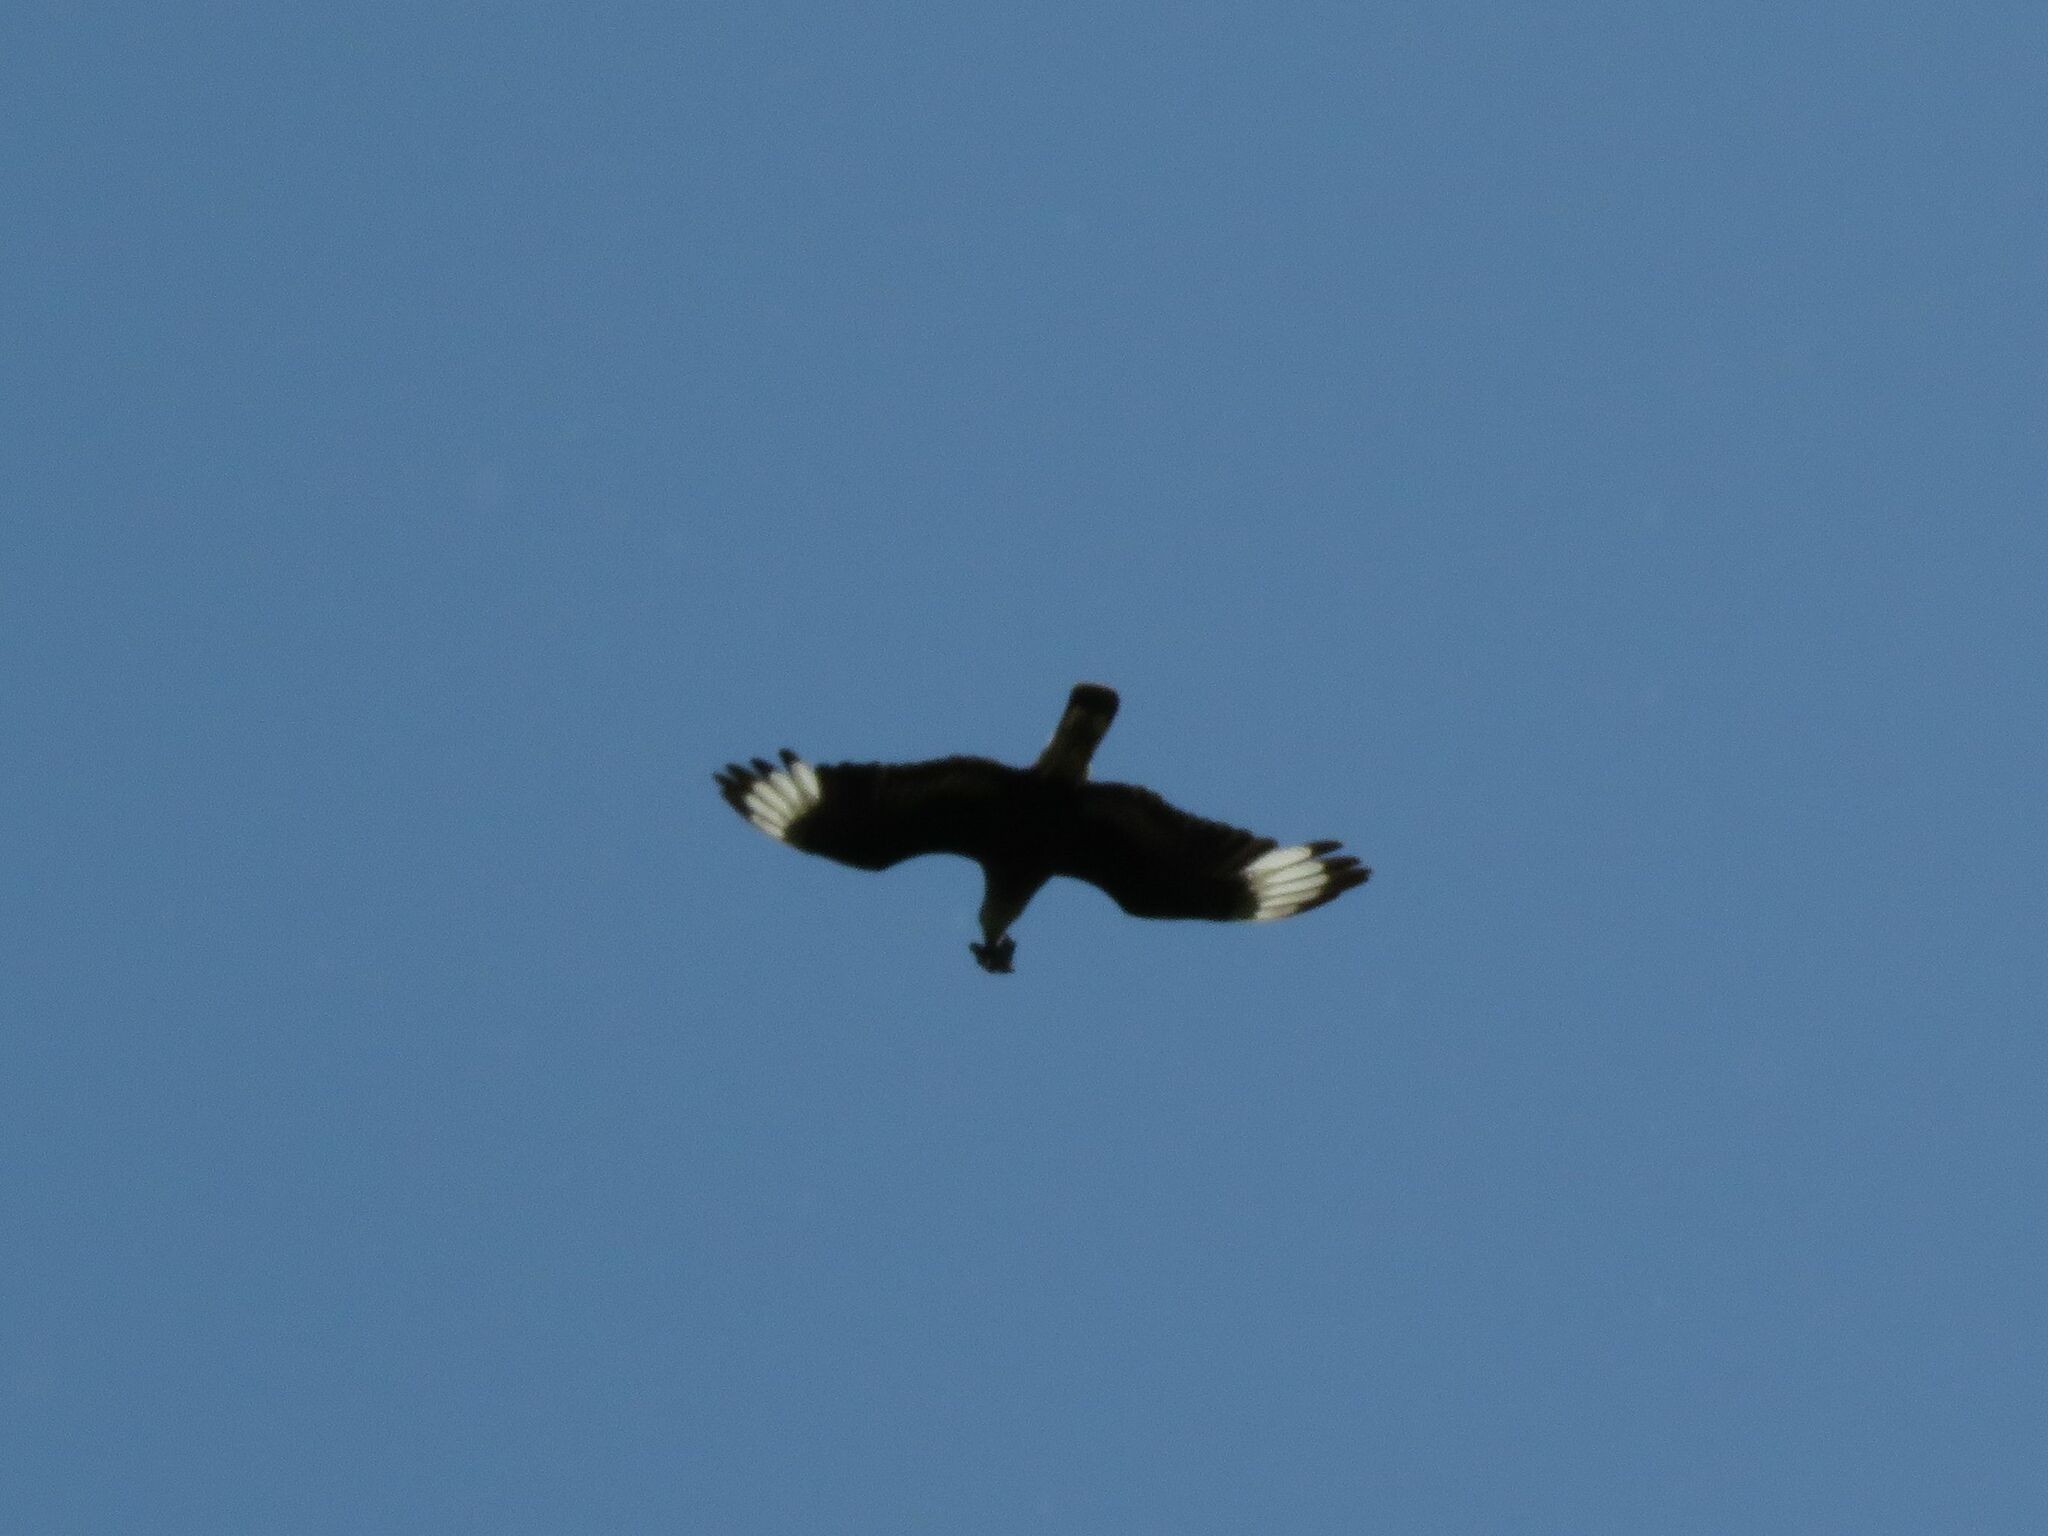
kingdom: Animalia
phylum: Chordata
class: Aves
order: Falconiformes
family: Falconidae
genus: Caracara
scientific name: Caracara plancus
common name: Southern caracara
